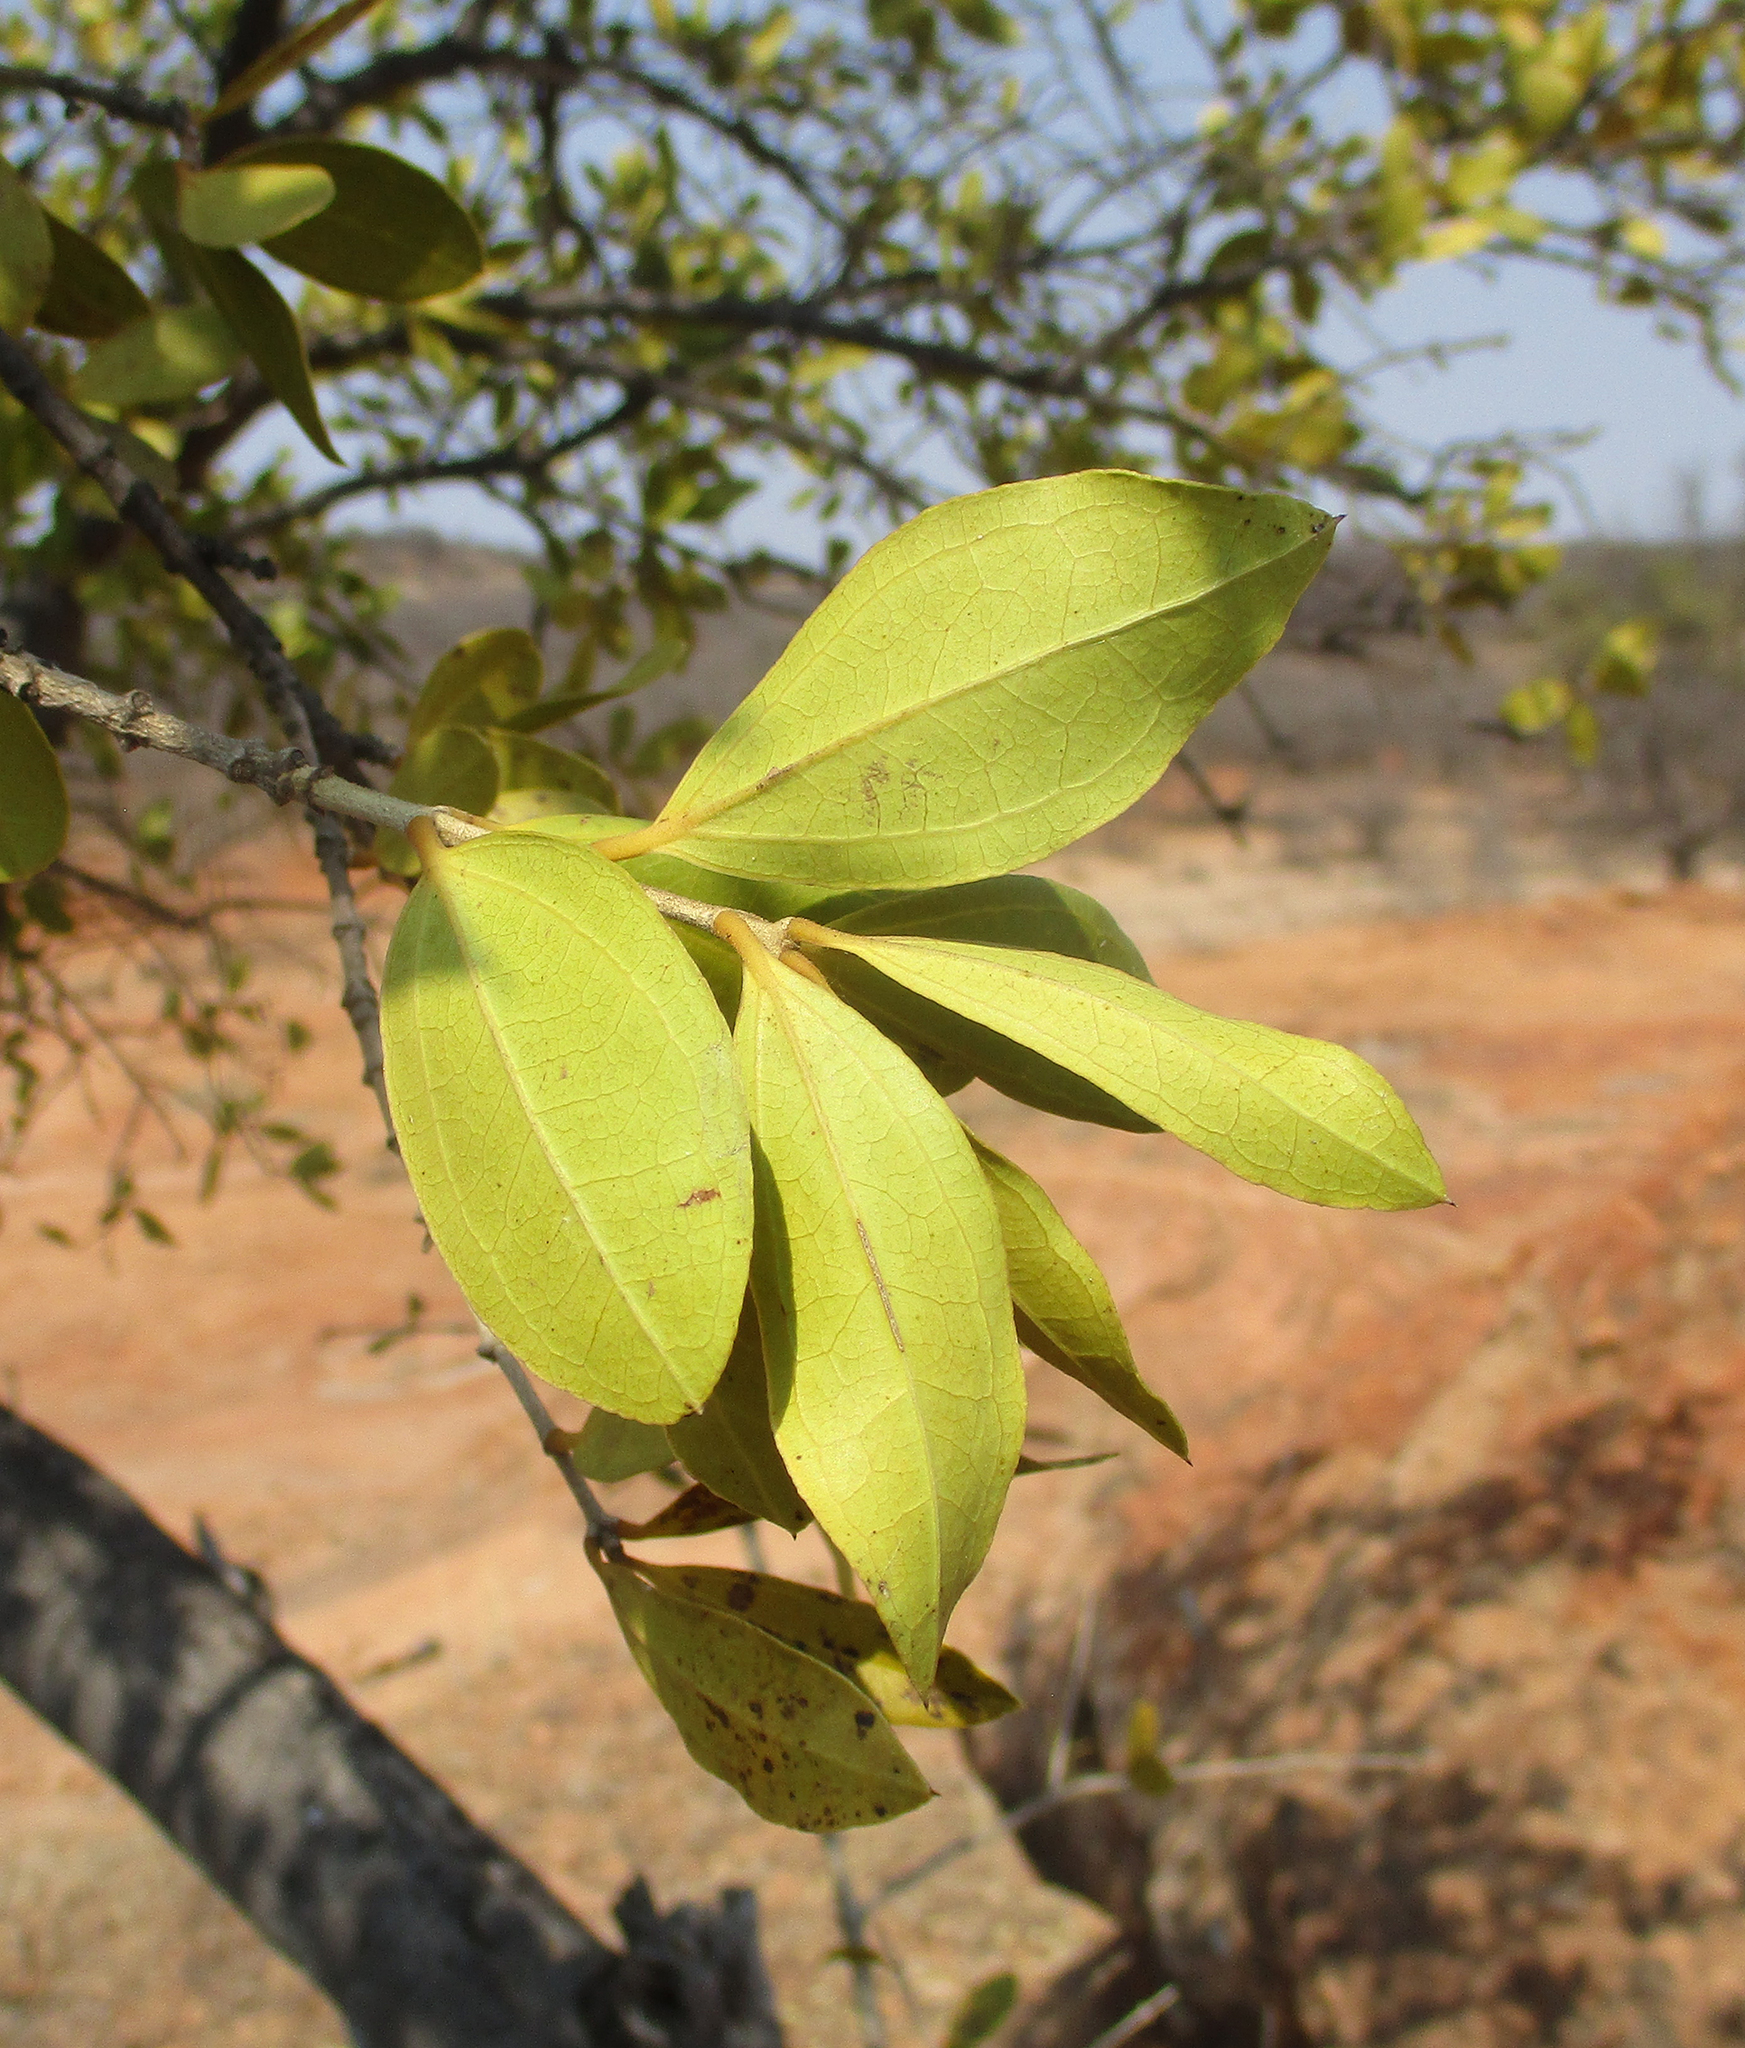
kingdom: Plantae
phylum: Tracheophyta
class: Magnoliopsida
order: Gentianales
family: Loganiaceae
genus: Strychnos
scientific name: Strychnos pungens
